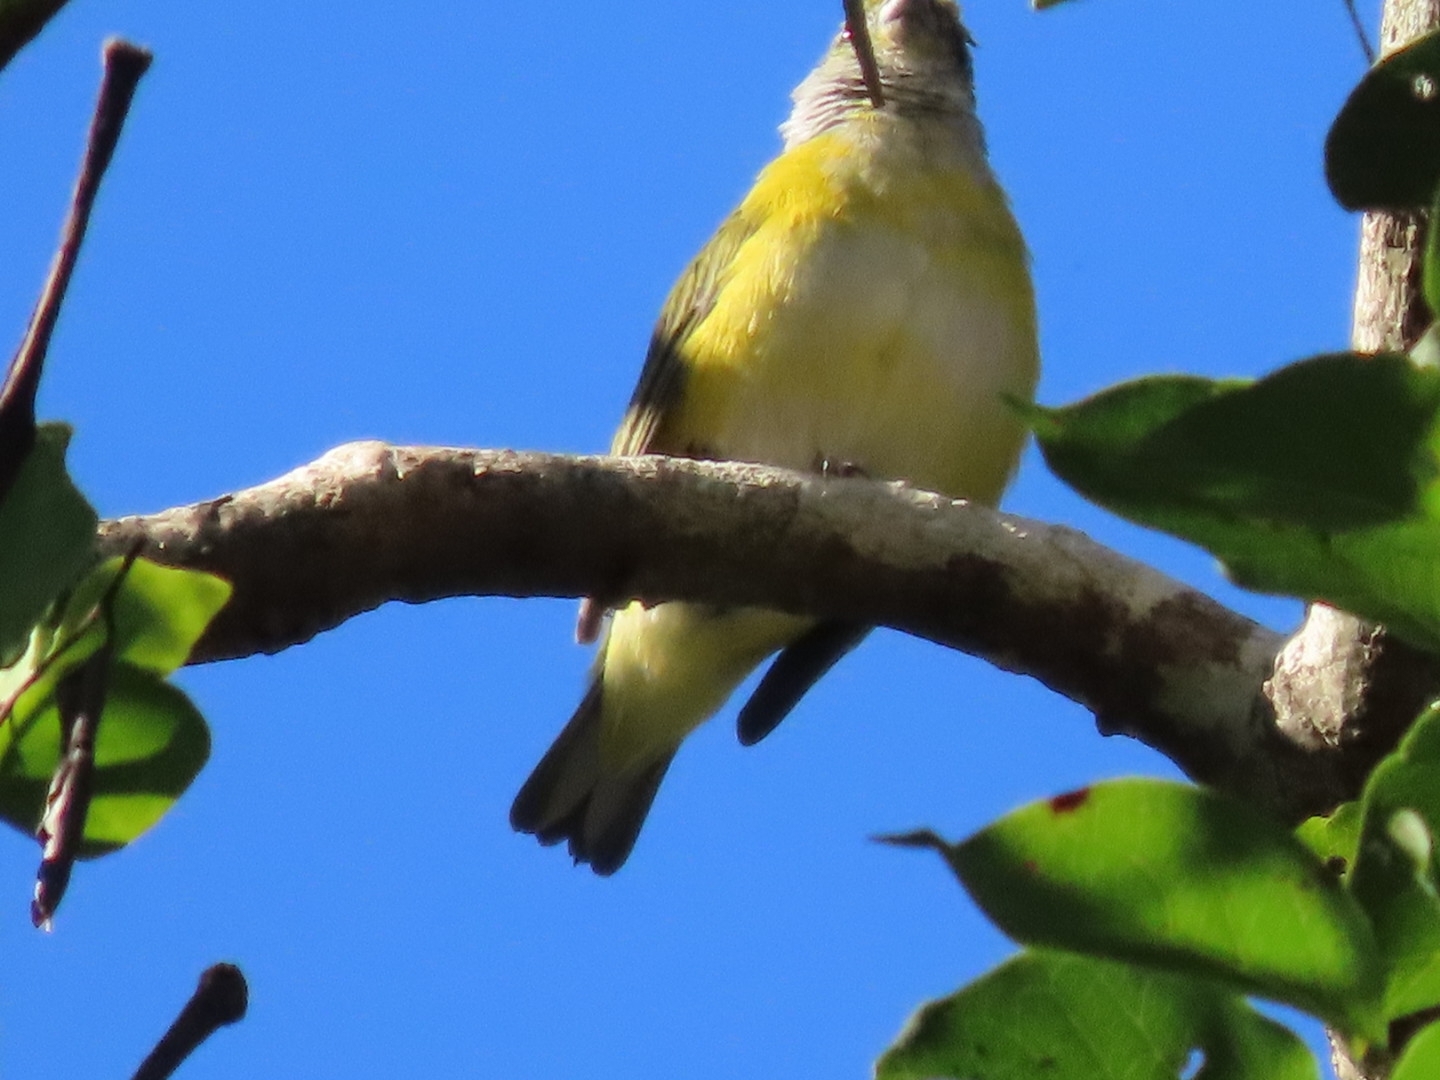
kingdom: Animalia
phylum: Chordata
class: Aves
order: Passeriformes
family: Fringillidae
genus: Euphonia
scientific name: Euphonia hirundinacea
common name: Yellow-throated euphonia
